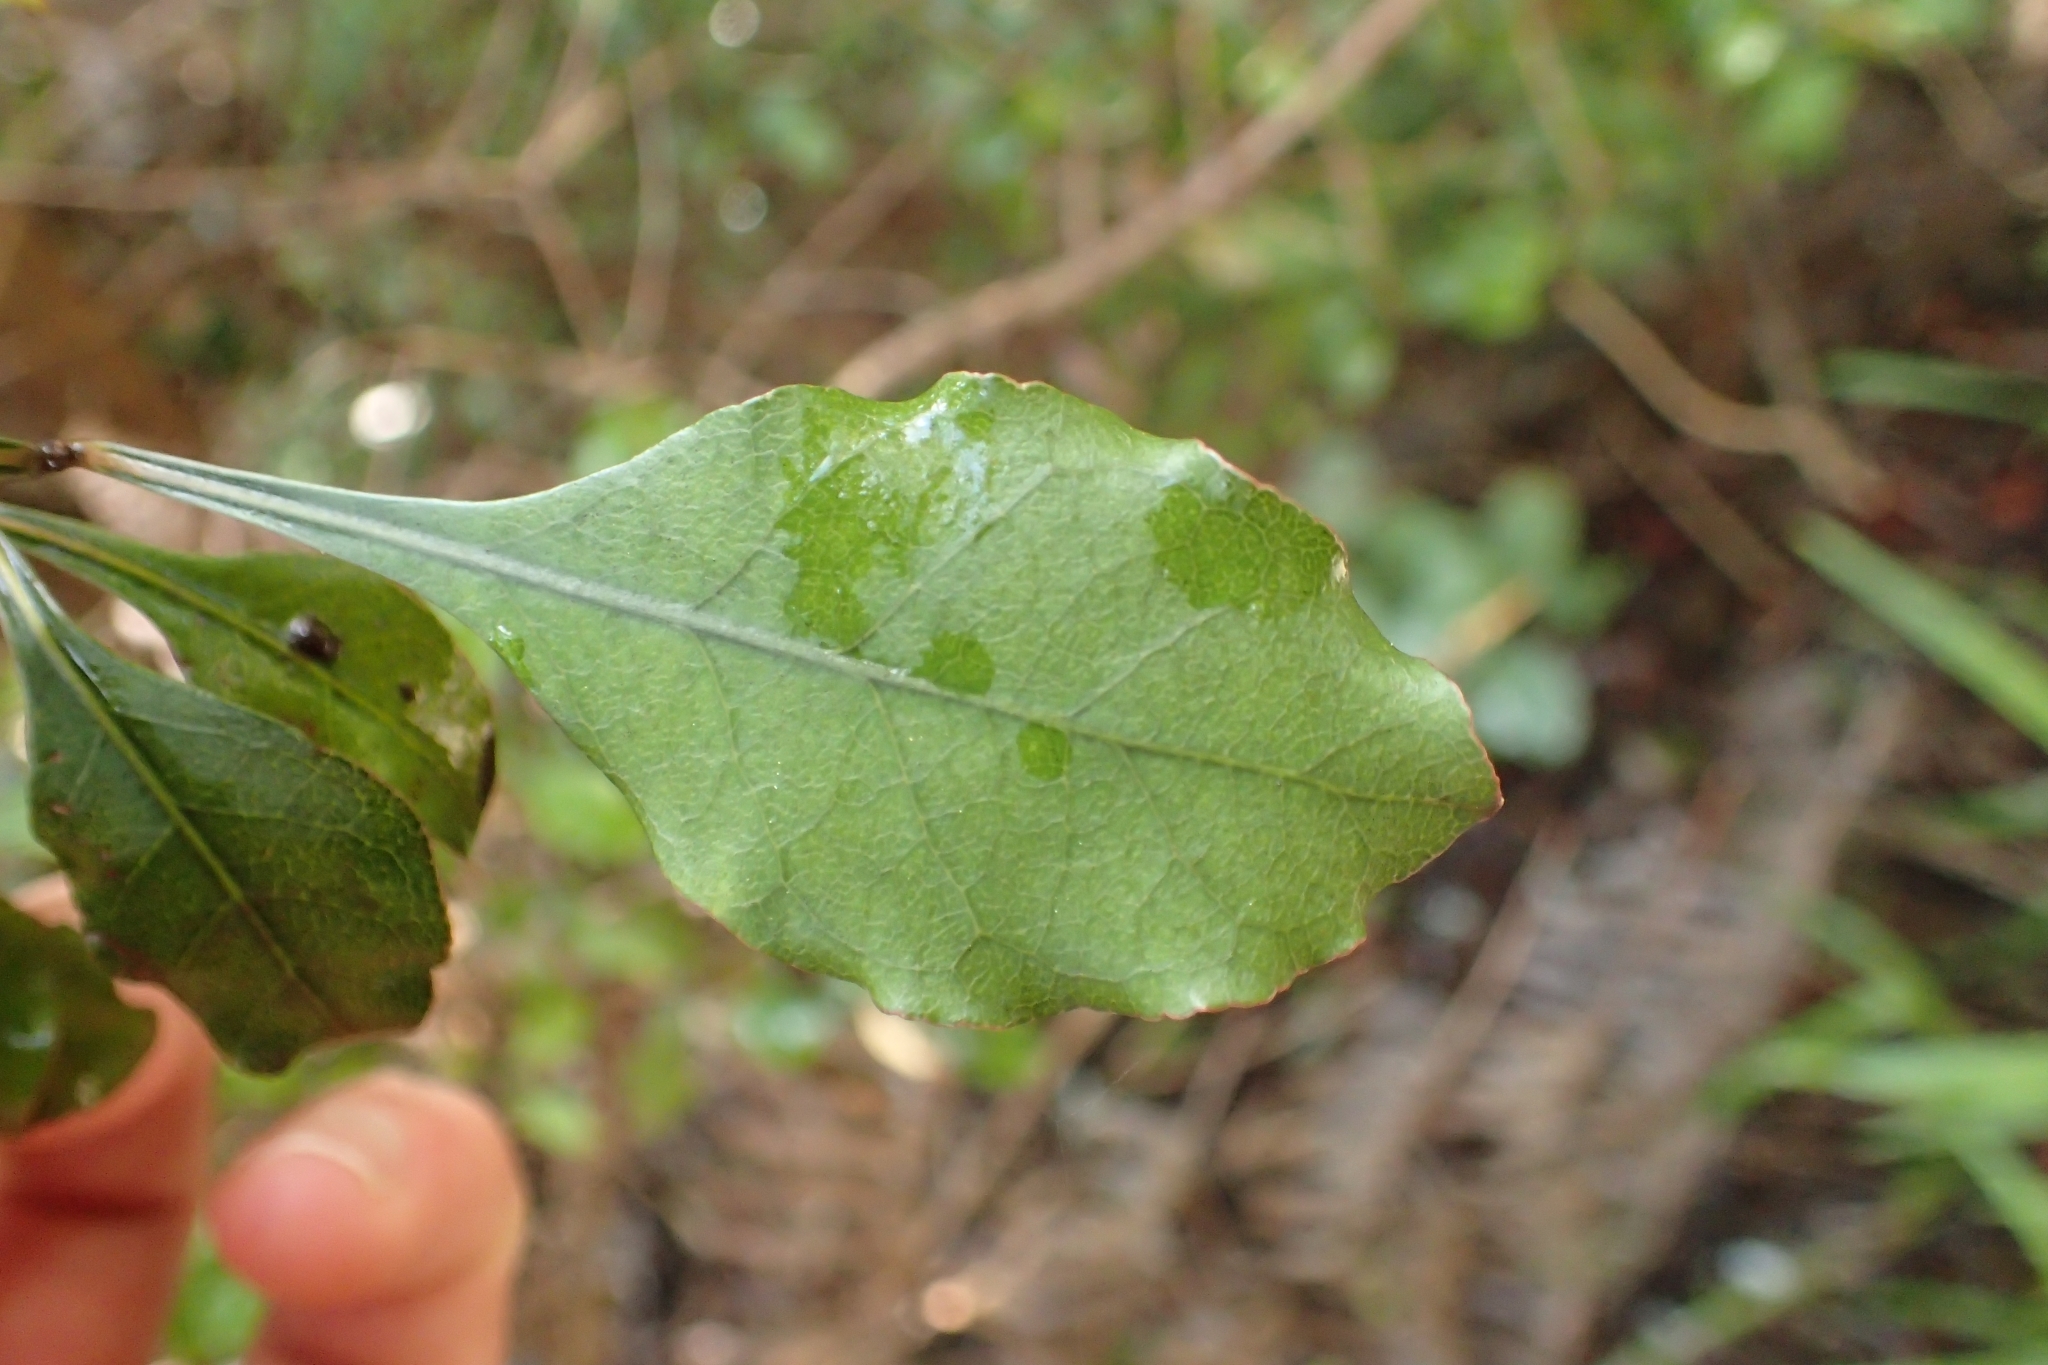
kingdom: Plantae
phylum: Tracheophyta
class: Magnoliopsida
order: Gentianales
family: Rubiaceae
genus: Coprosma
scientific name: Coprosma arborea
